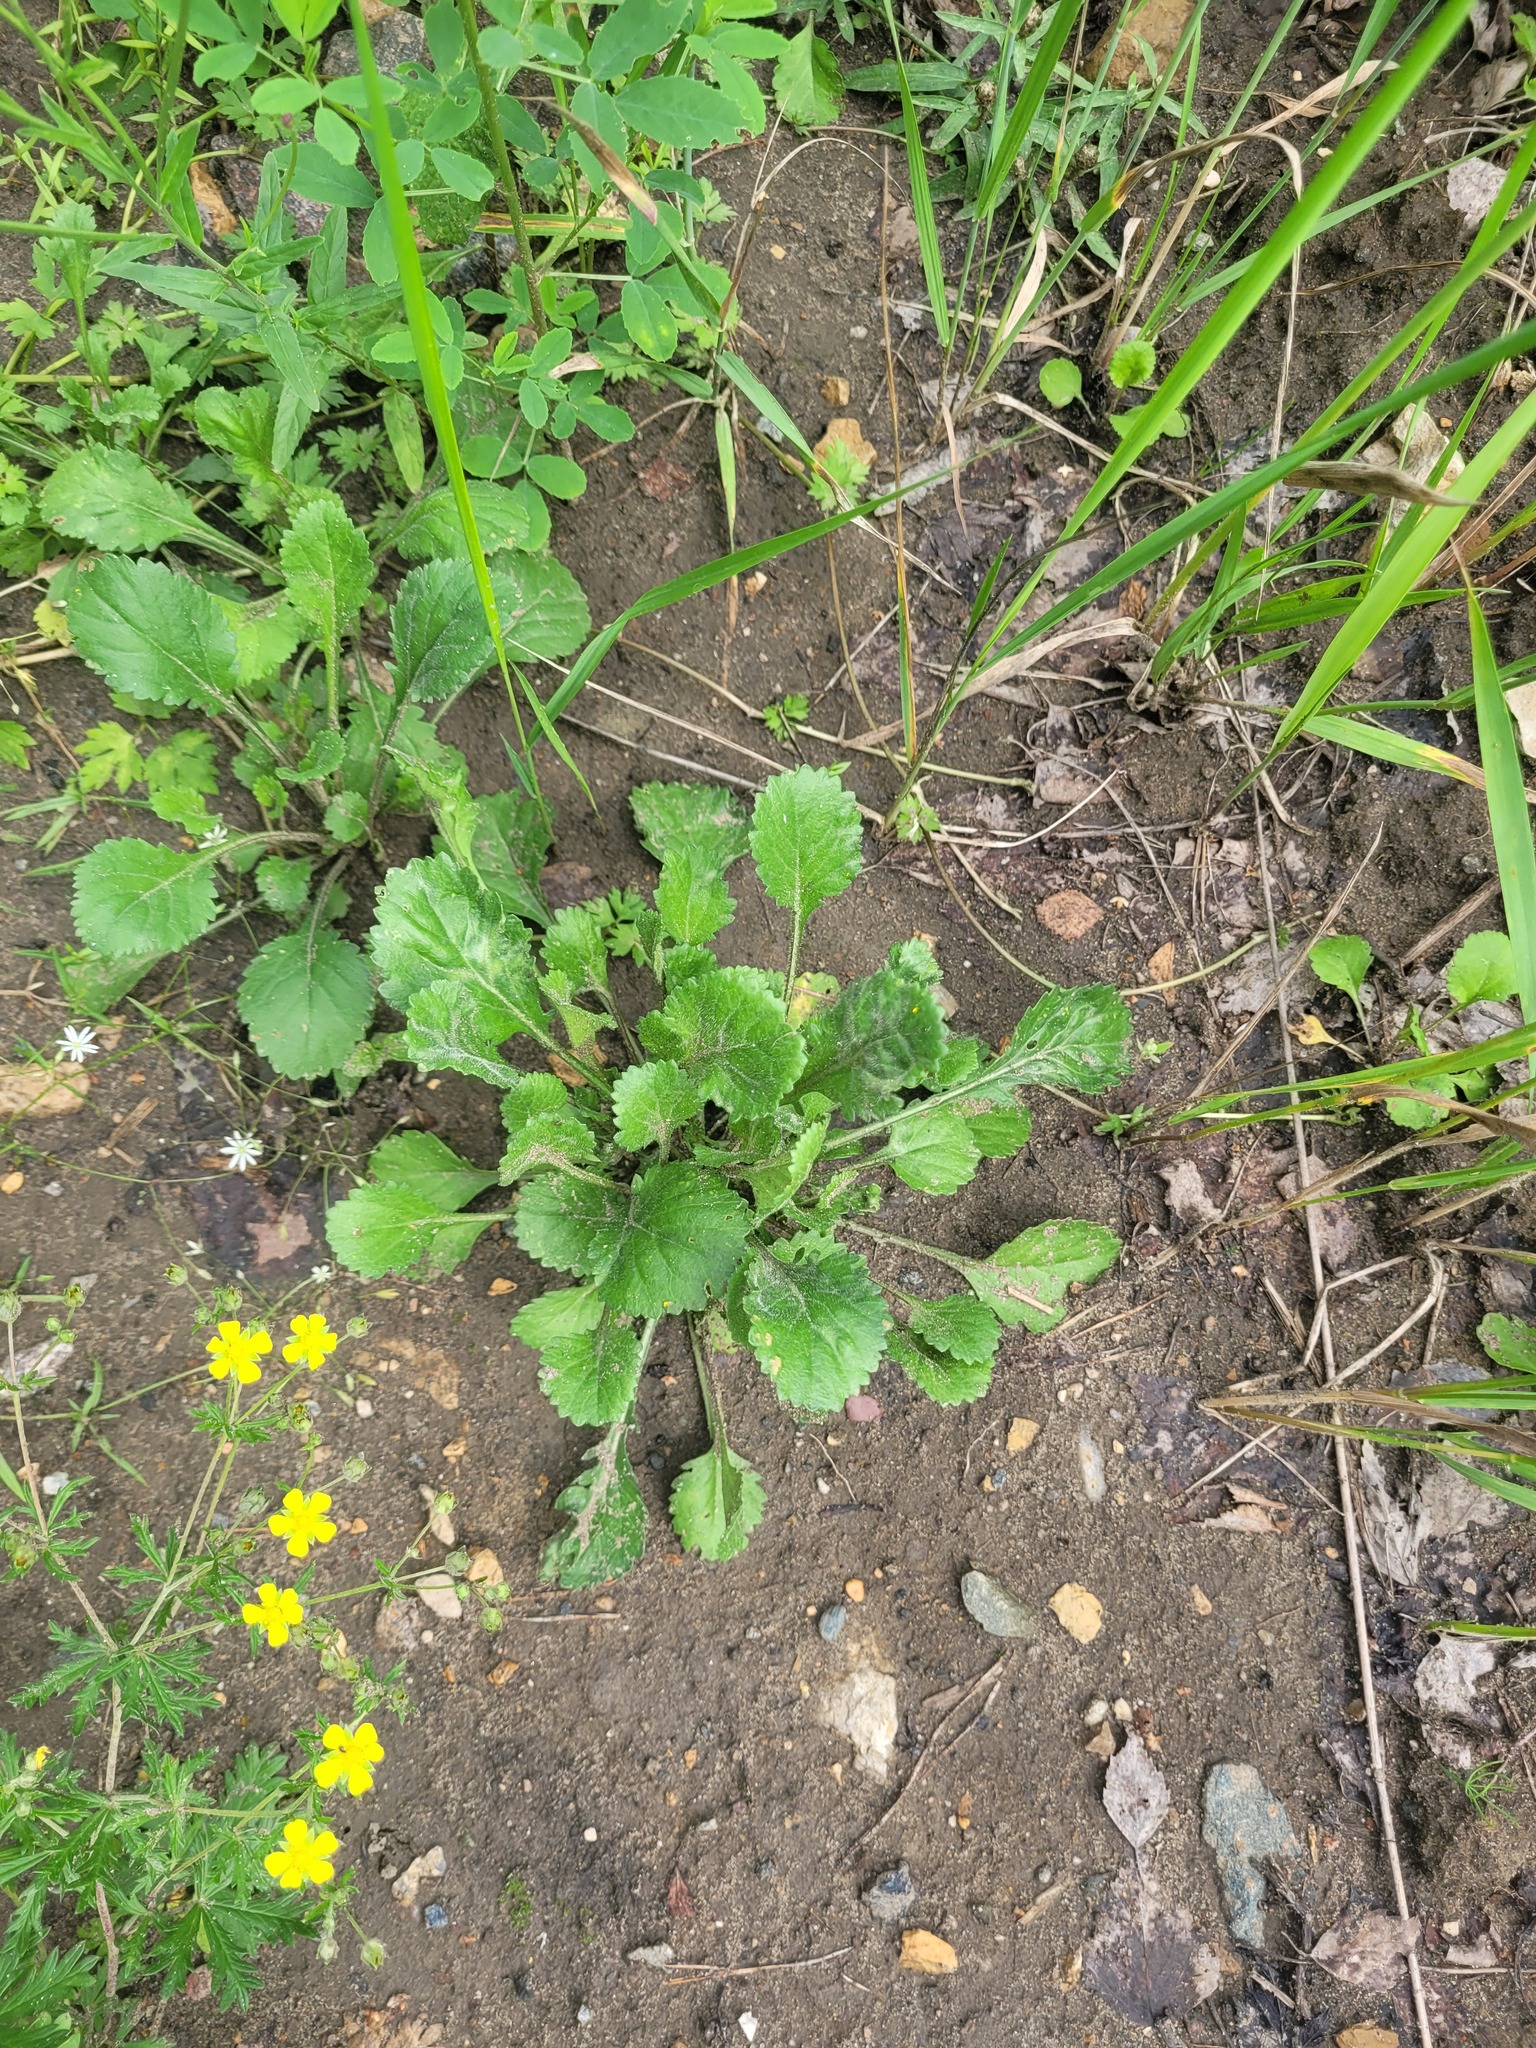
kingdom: Plantae
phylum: Tracheophyta
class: Magnoliopsida
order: Asterales
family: Asteraceae
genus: Leucanthemum
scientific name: Leucanthemum vulgare
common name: Oxeye daisy
